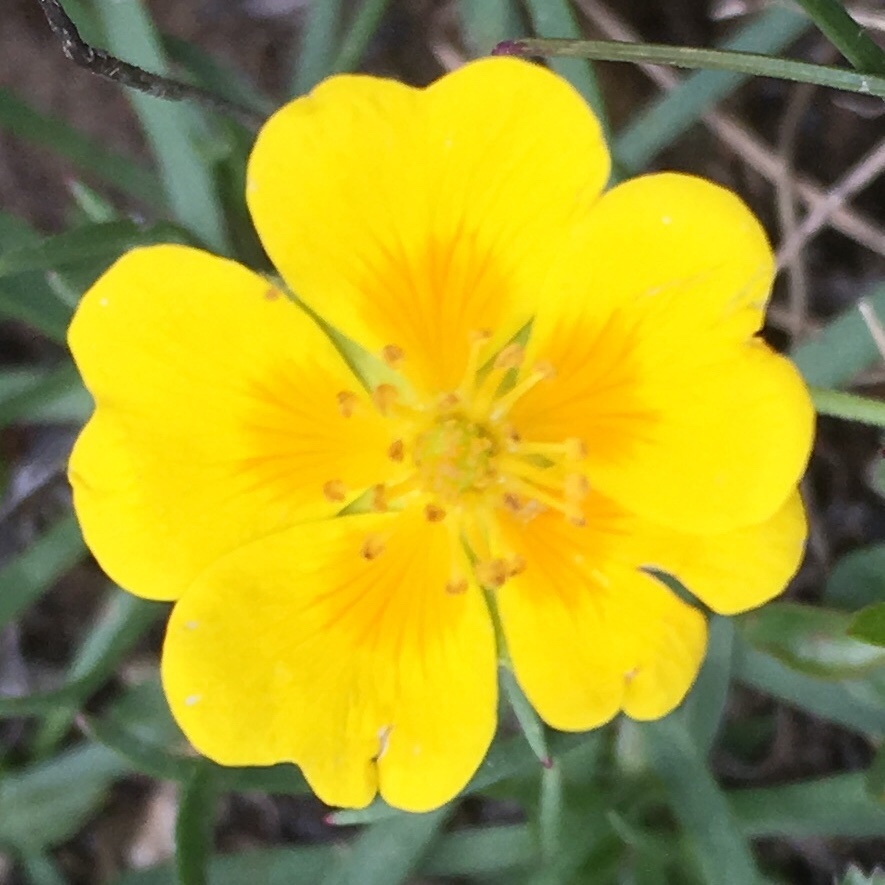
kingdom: Plantae
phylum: Tracheophyta
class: Magnoliopsida
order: Malvales
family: Cistaceae
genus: Helianthemum
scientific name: Helianthemum nummularium
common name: Common rock-rose
